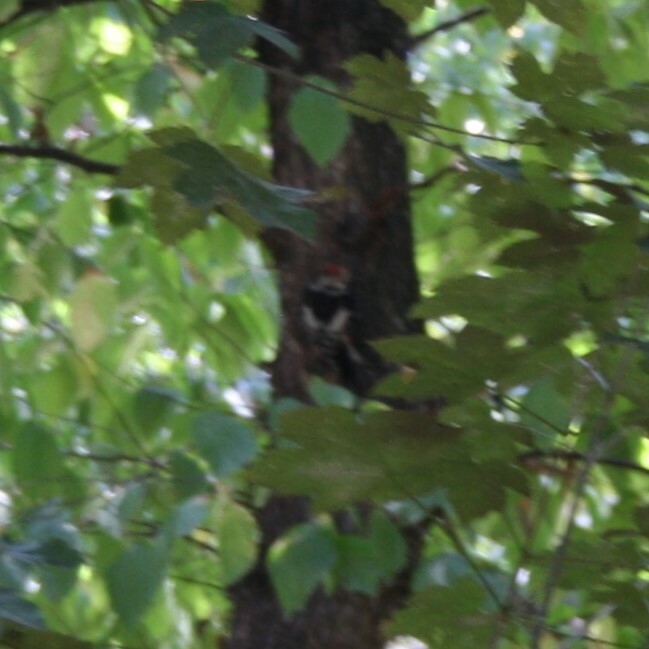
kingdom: Animalia
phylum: Chordata
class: Aves
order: Piciformes
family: Picidae
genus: Dendrocopos
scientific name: Dendrocopos major
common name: Great spotted woodpecker
